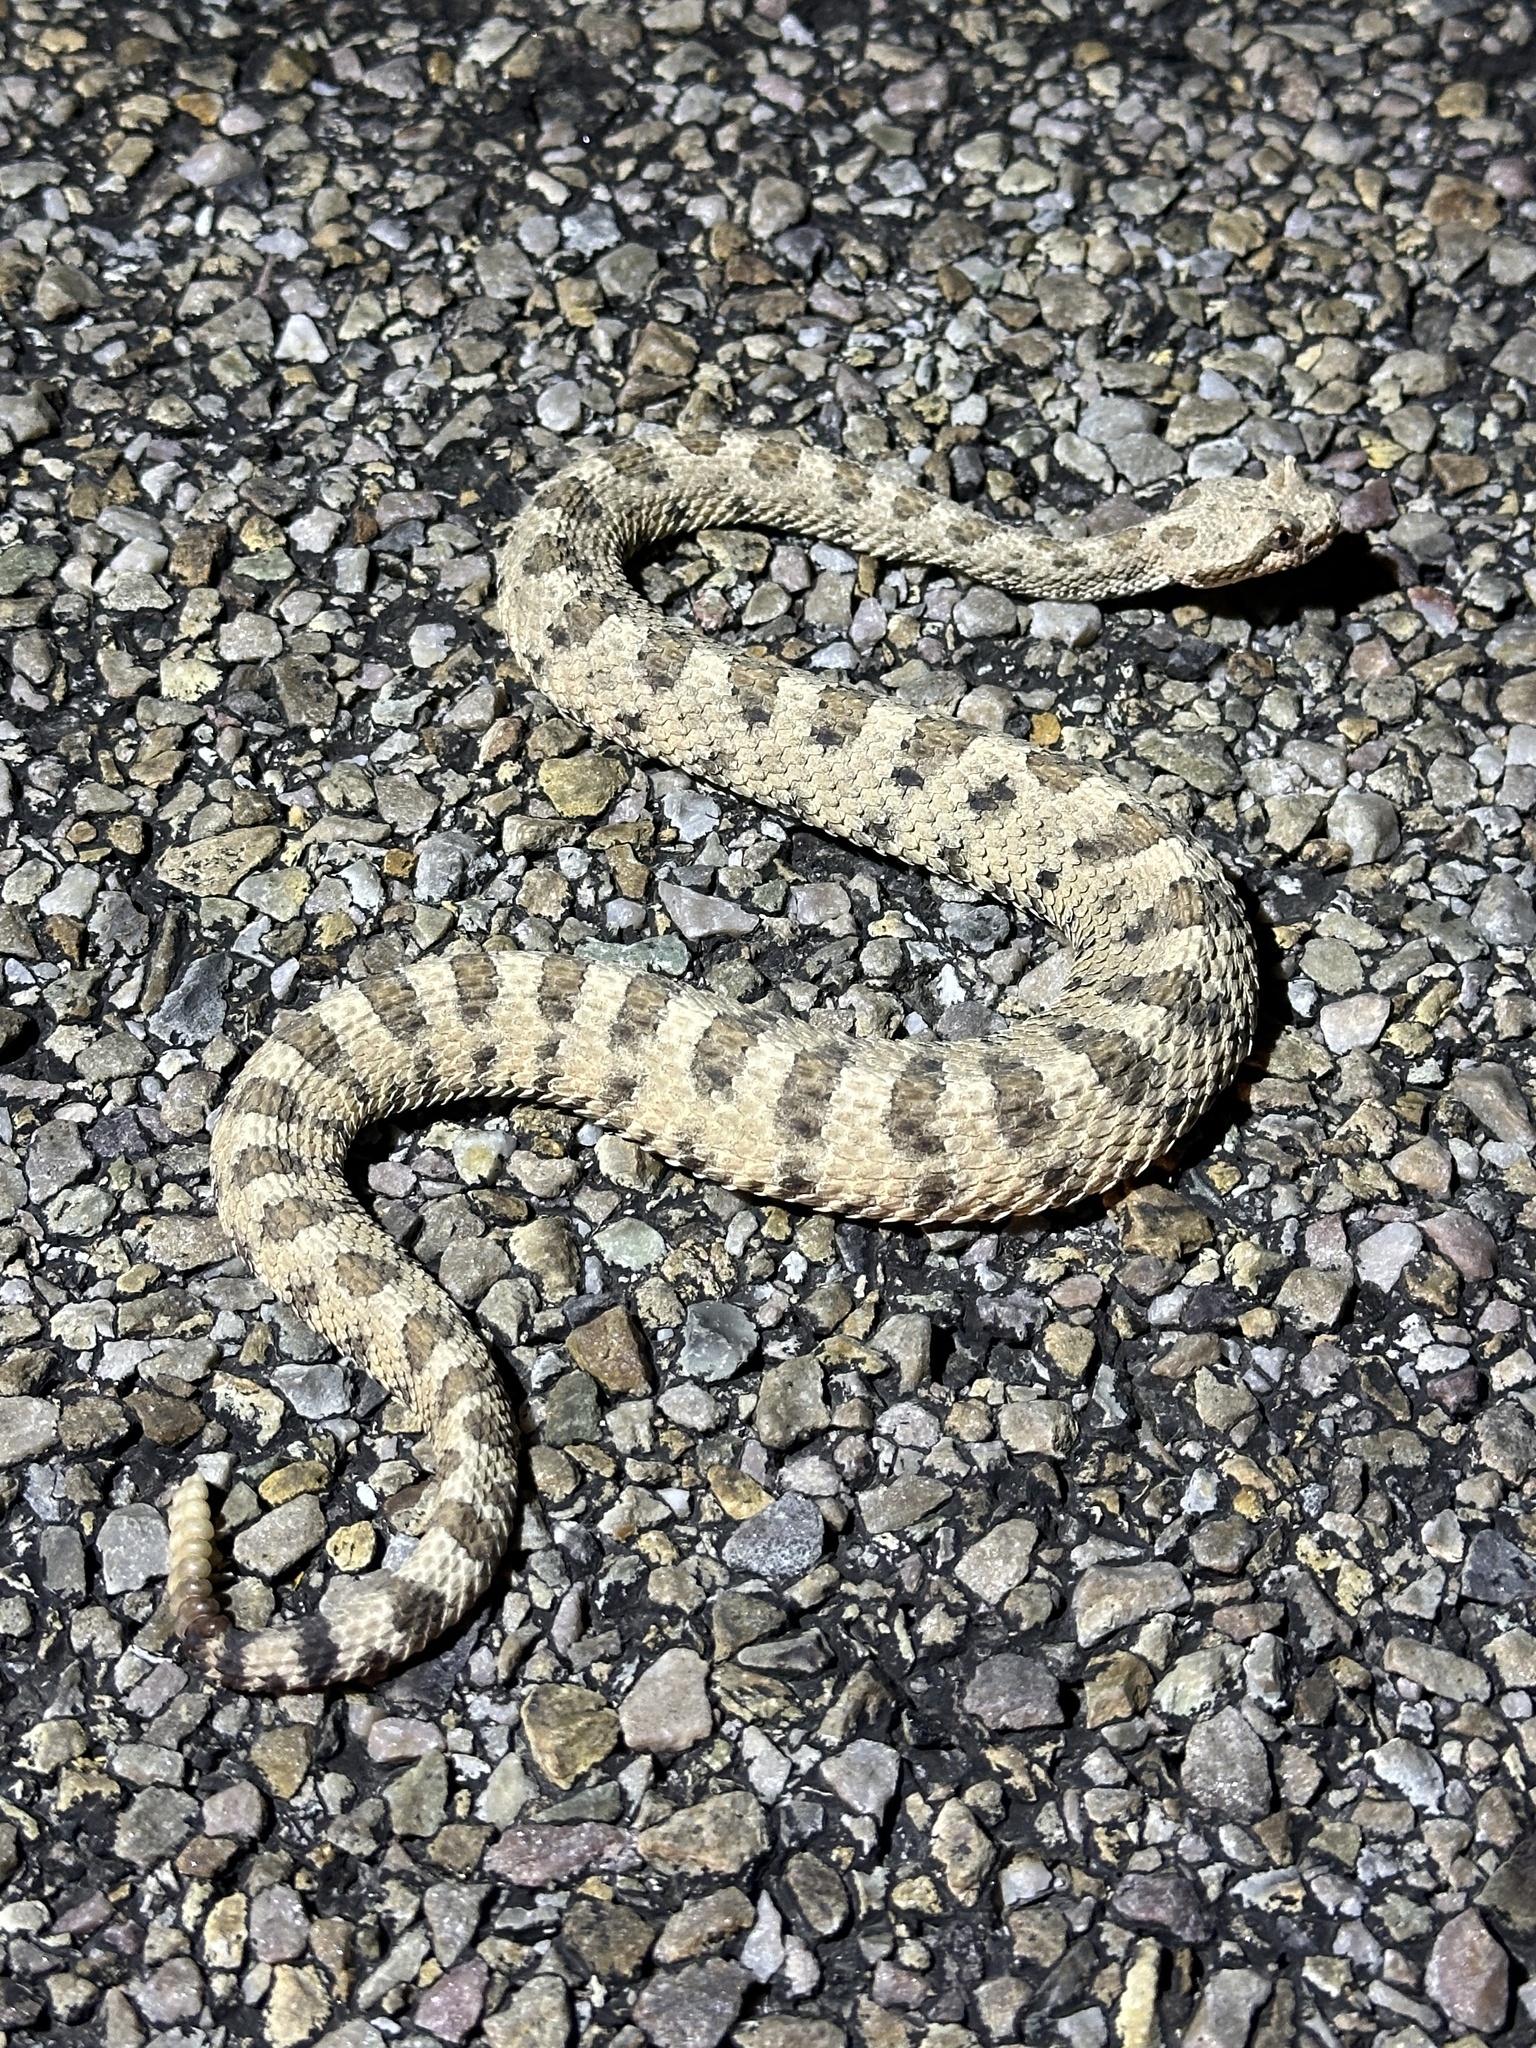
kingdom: Animalia
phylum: Chordata
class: Squamata
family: Viperidae
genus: Crotalus
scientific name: Crotalus cerastes
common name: Sidewinder
